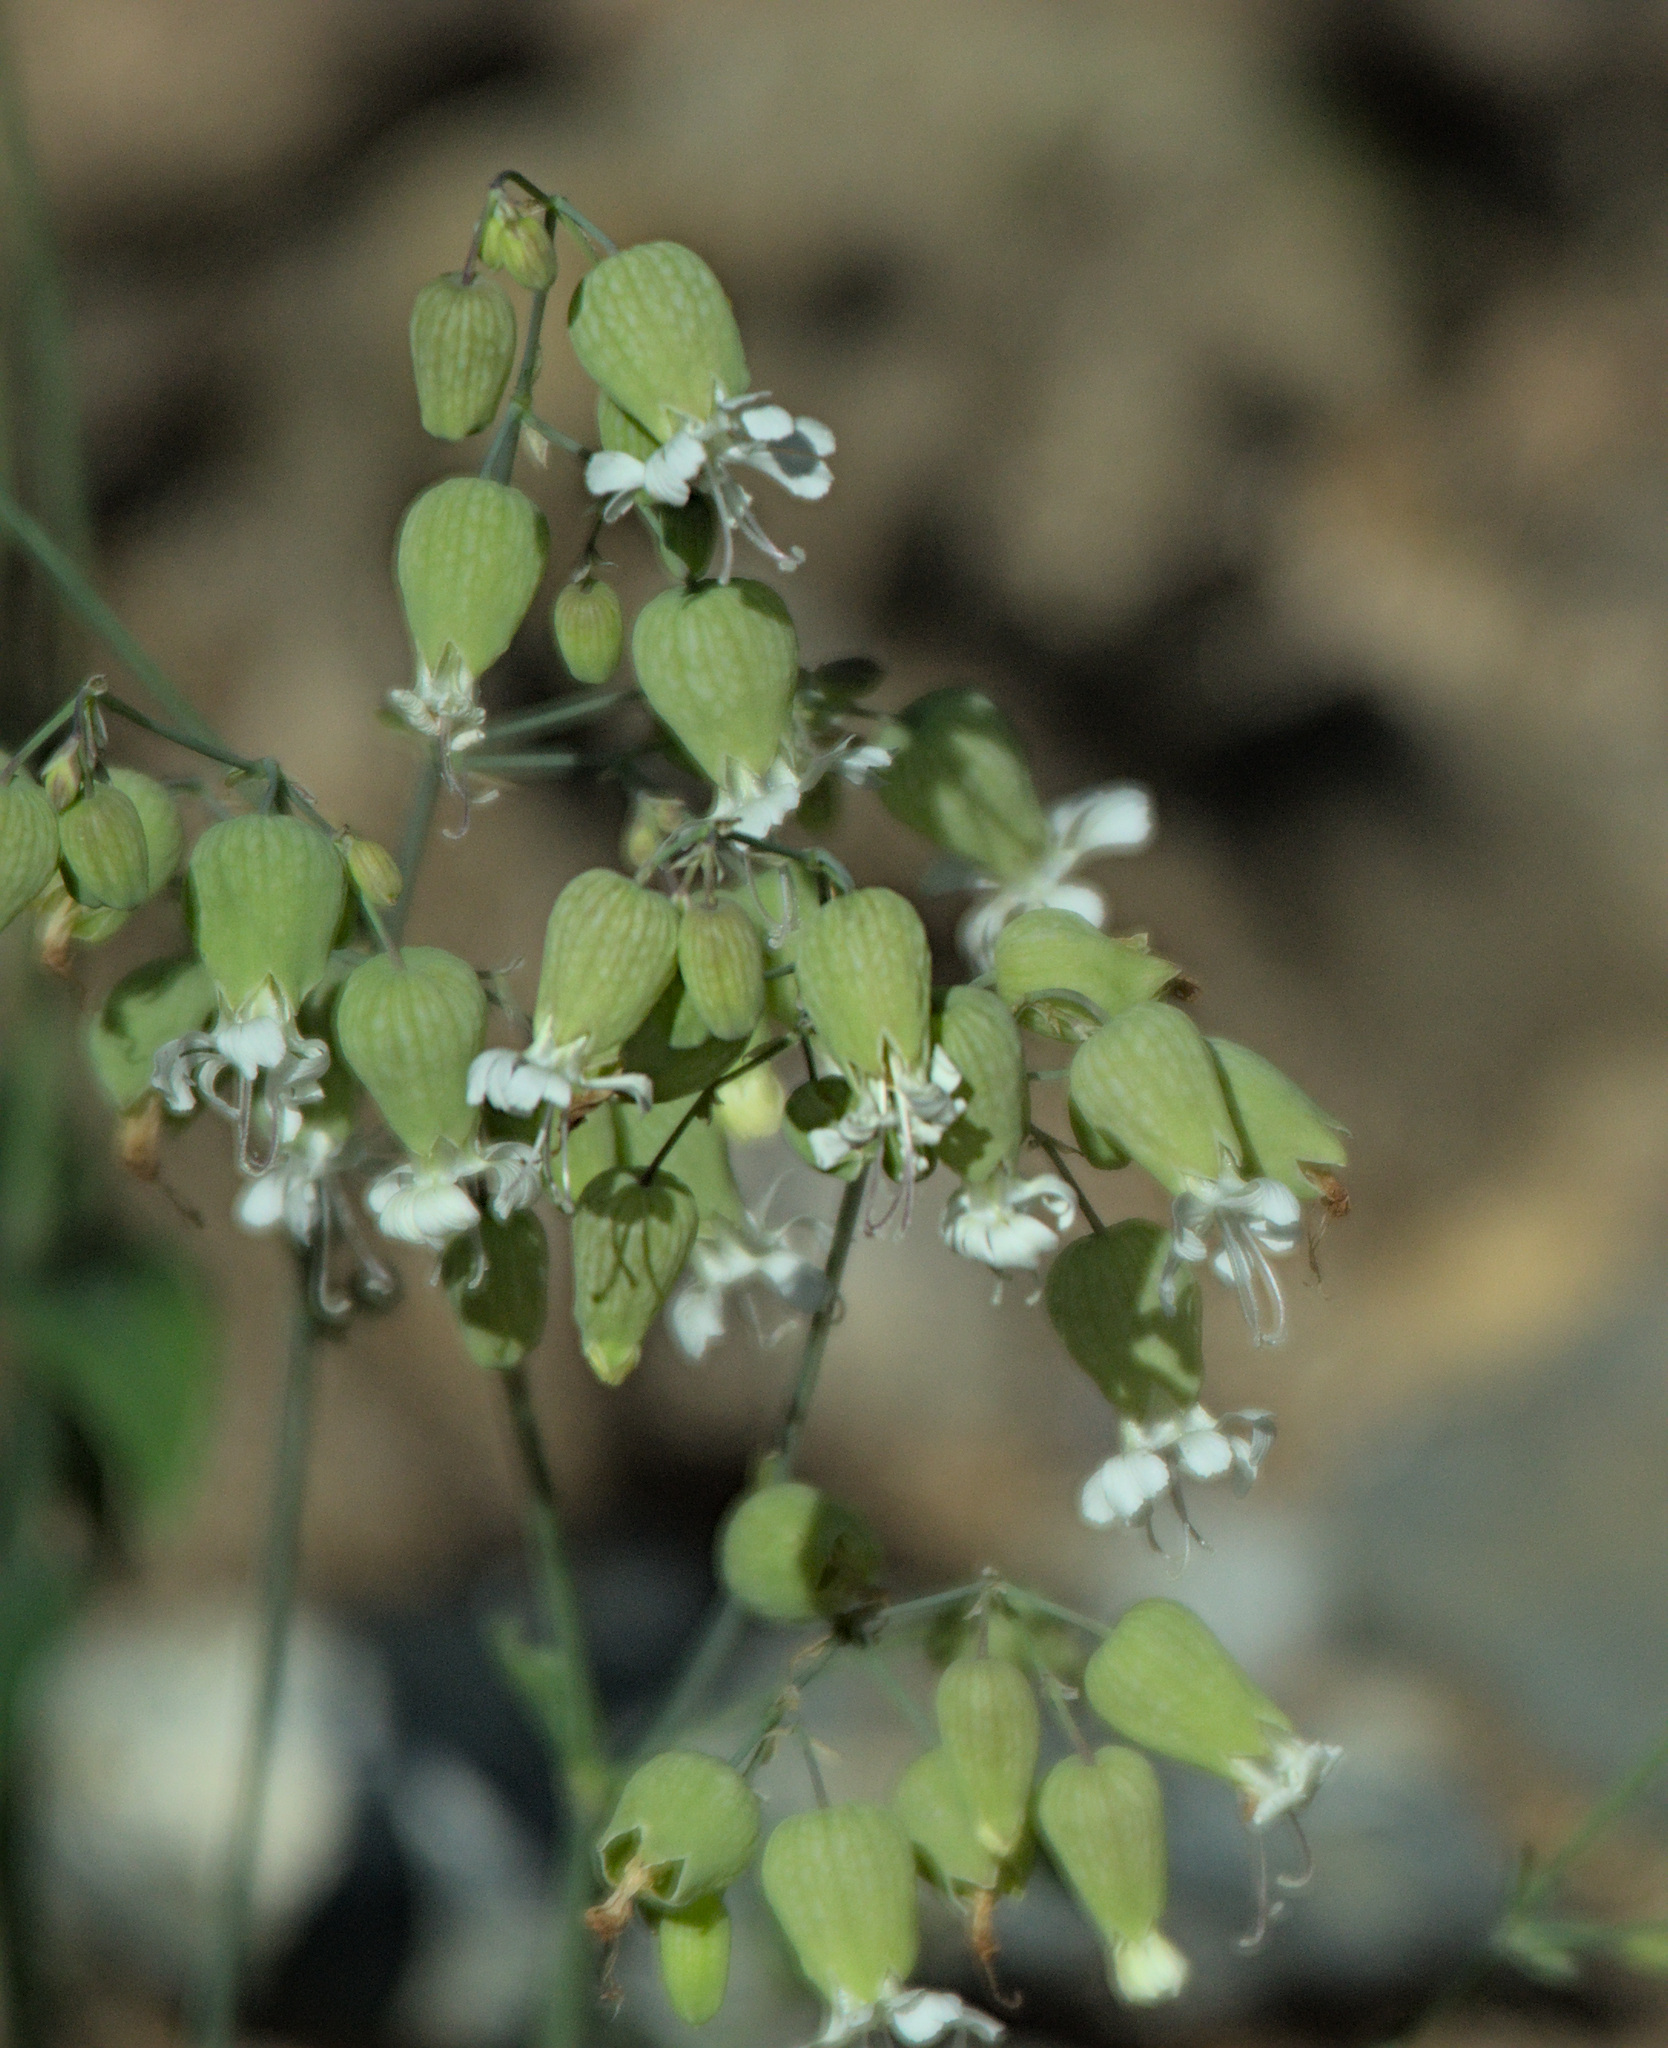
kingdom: Plantae
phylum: Tracheophyta
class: Magnoliopsida
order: Caryophyllales
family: Caryophyllaceae
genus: Silene
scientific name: Silene vulgaris
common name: Bladder campion
